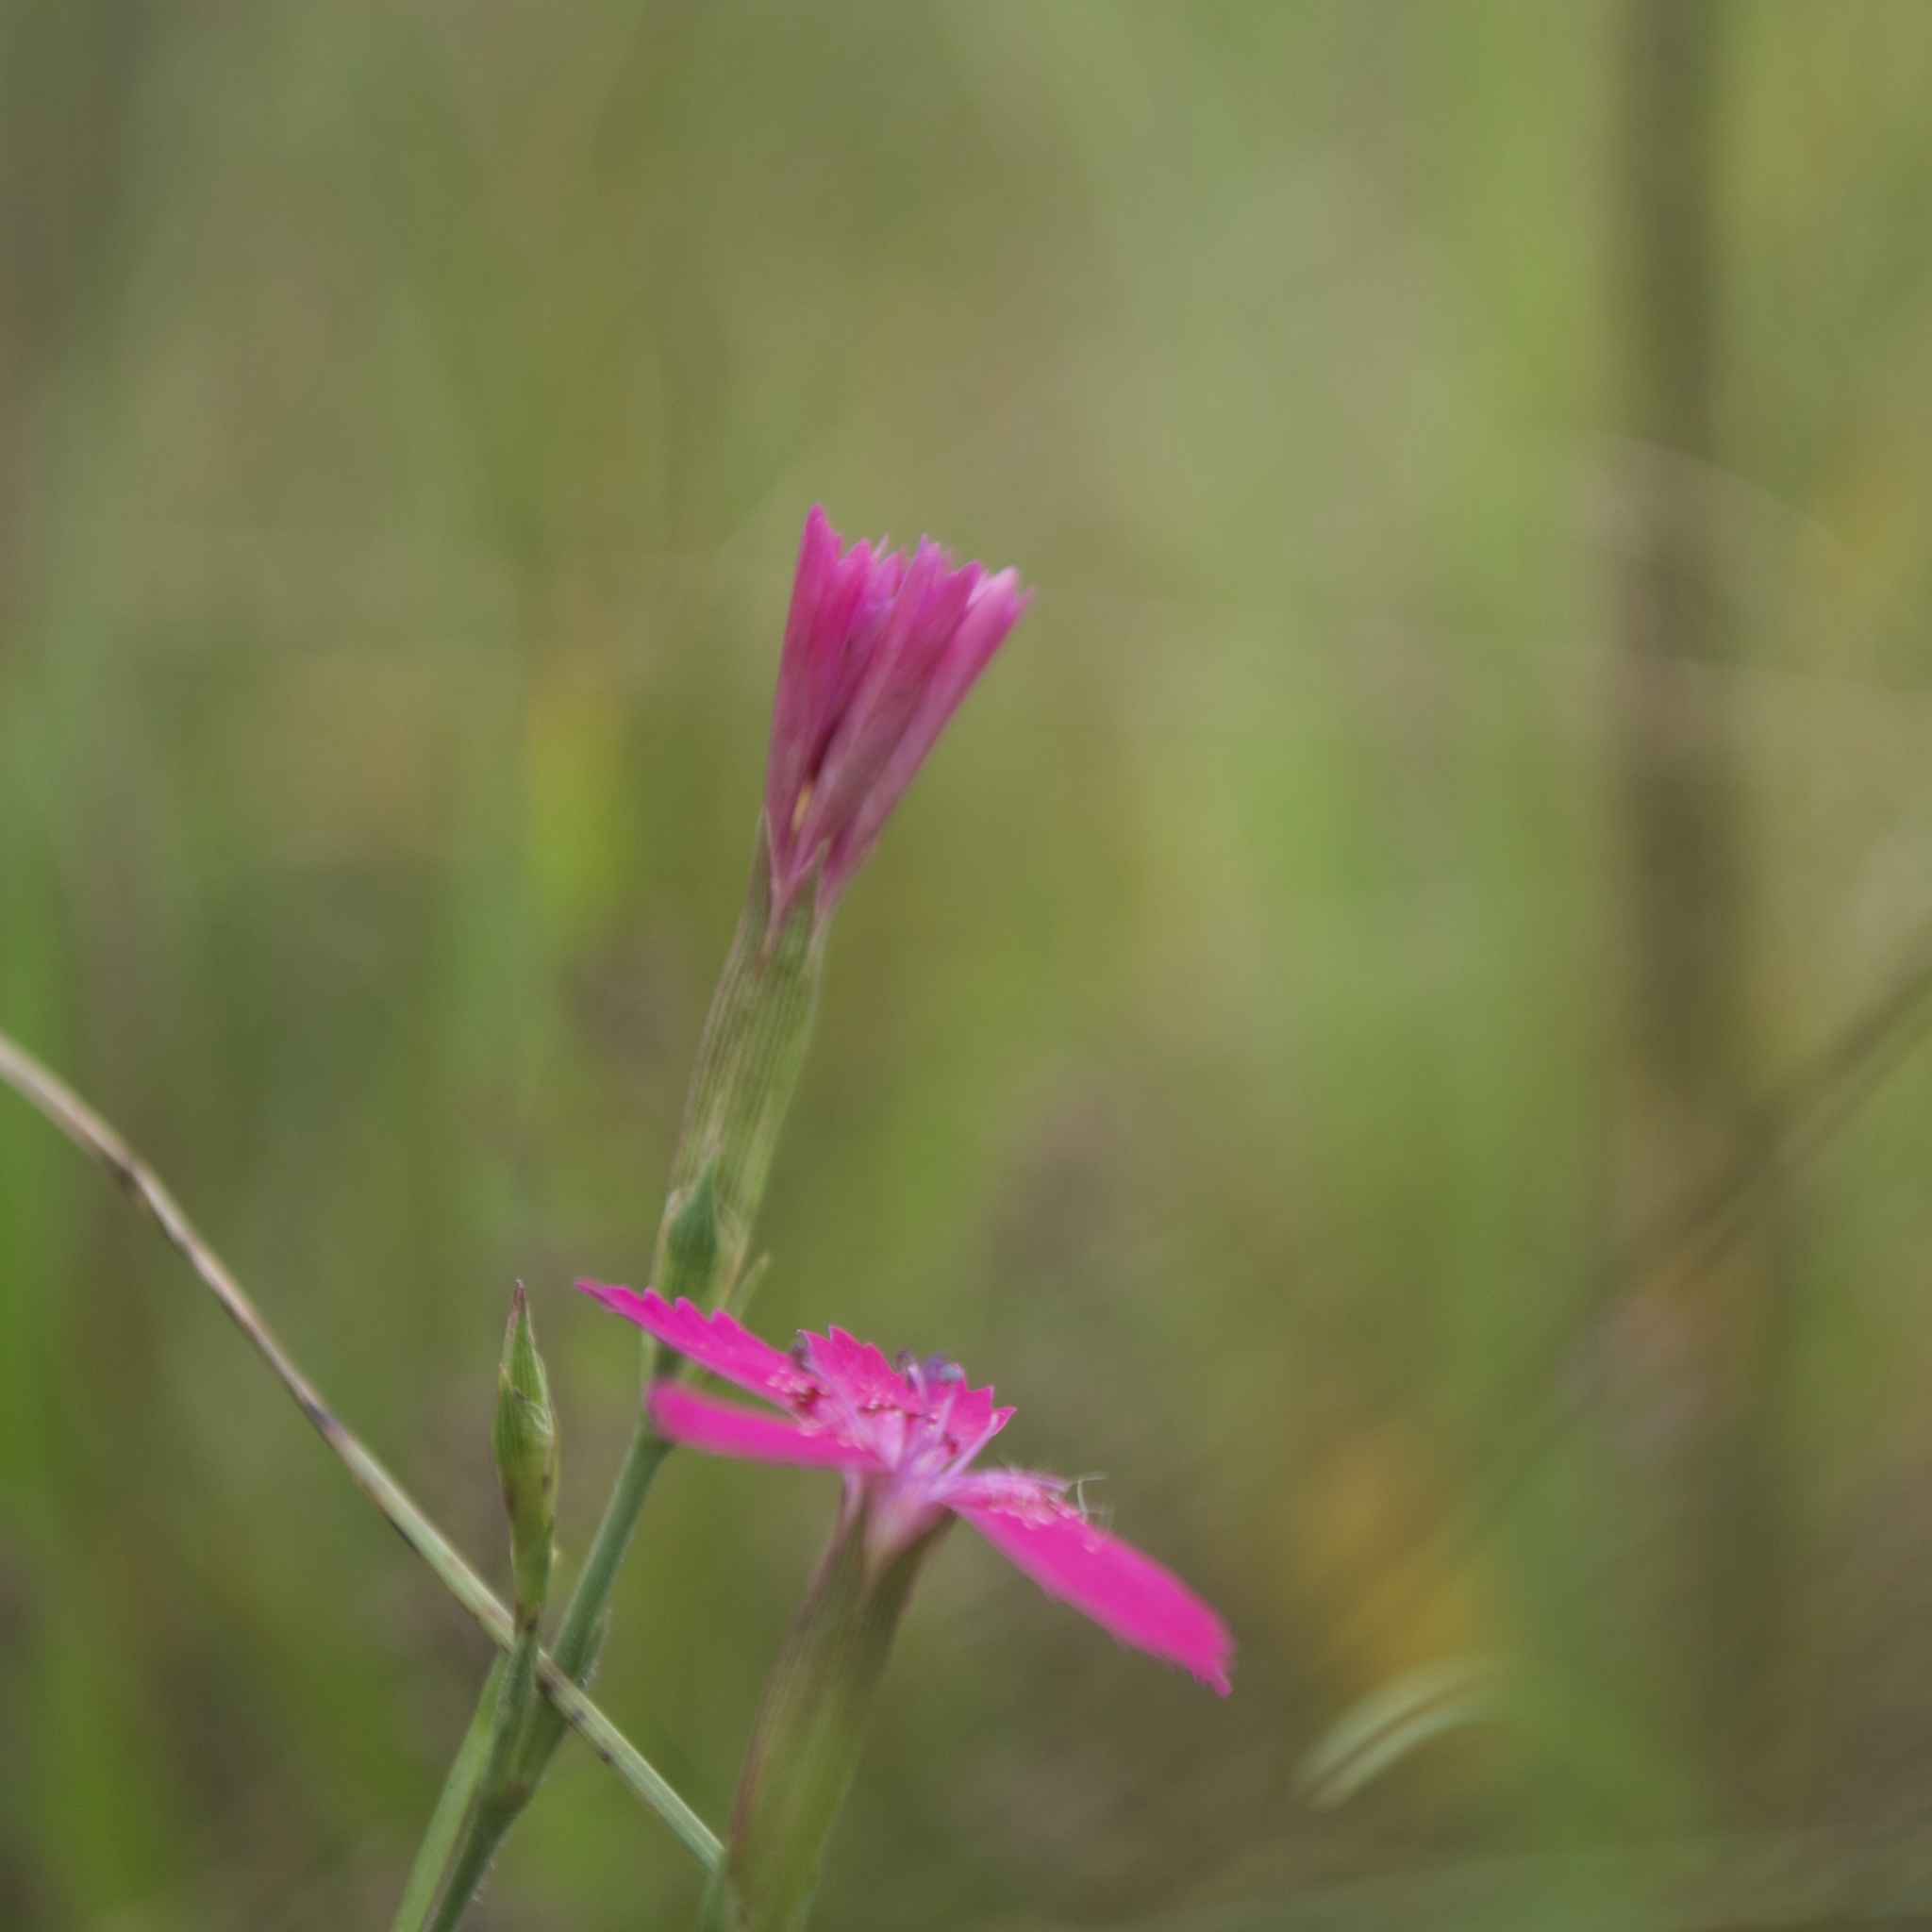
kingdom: Plantae
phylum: Tracheophyta
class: Magnoliopsida
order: Caryophyllales
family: Caryophyllaceae
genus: Dianthus
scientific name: Dianthus deltoides
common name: Maiden pink
